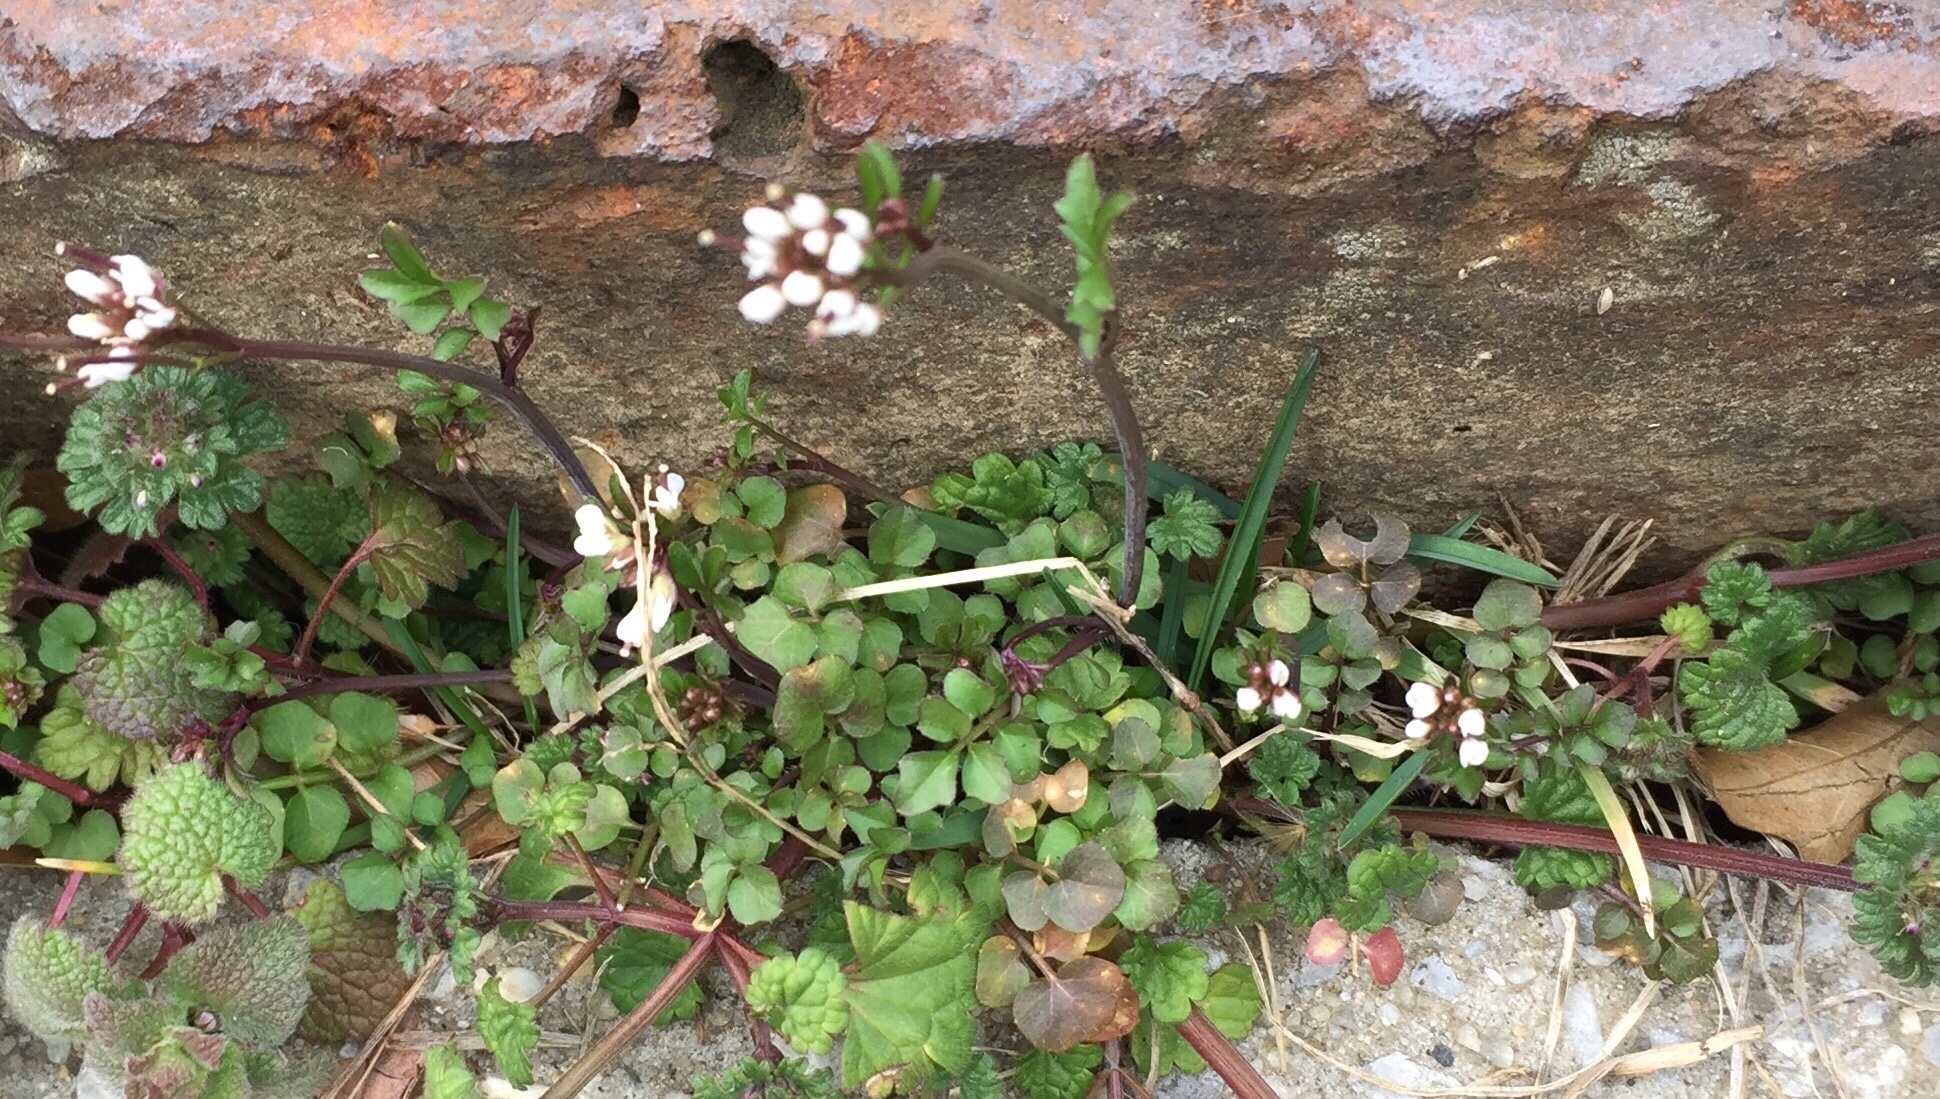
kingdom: Plantae
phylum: Tracheophyta
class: Magnoliopsida
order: Brassicales
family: Brassicaceae
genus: Cardamine
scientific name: Cardamine hirsuta
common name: Hairy bittercress
